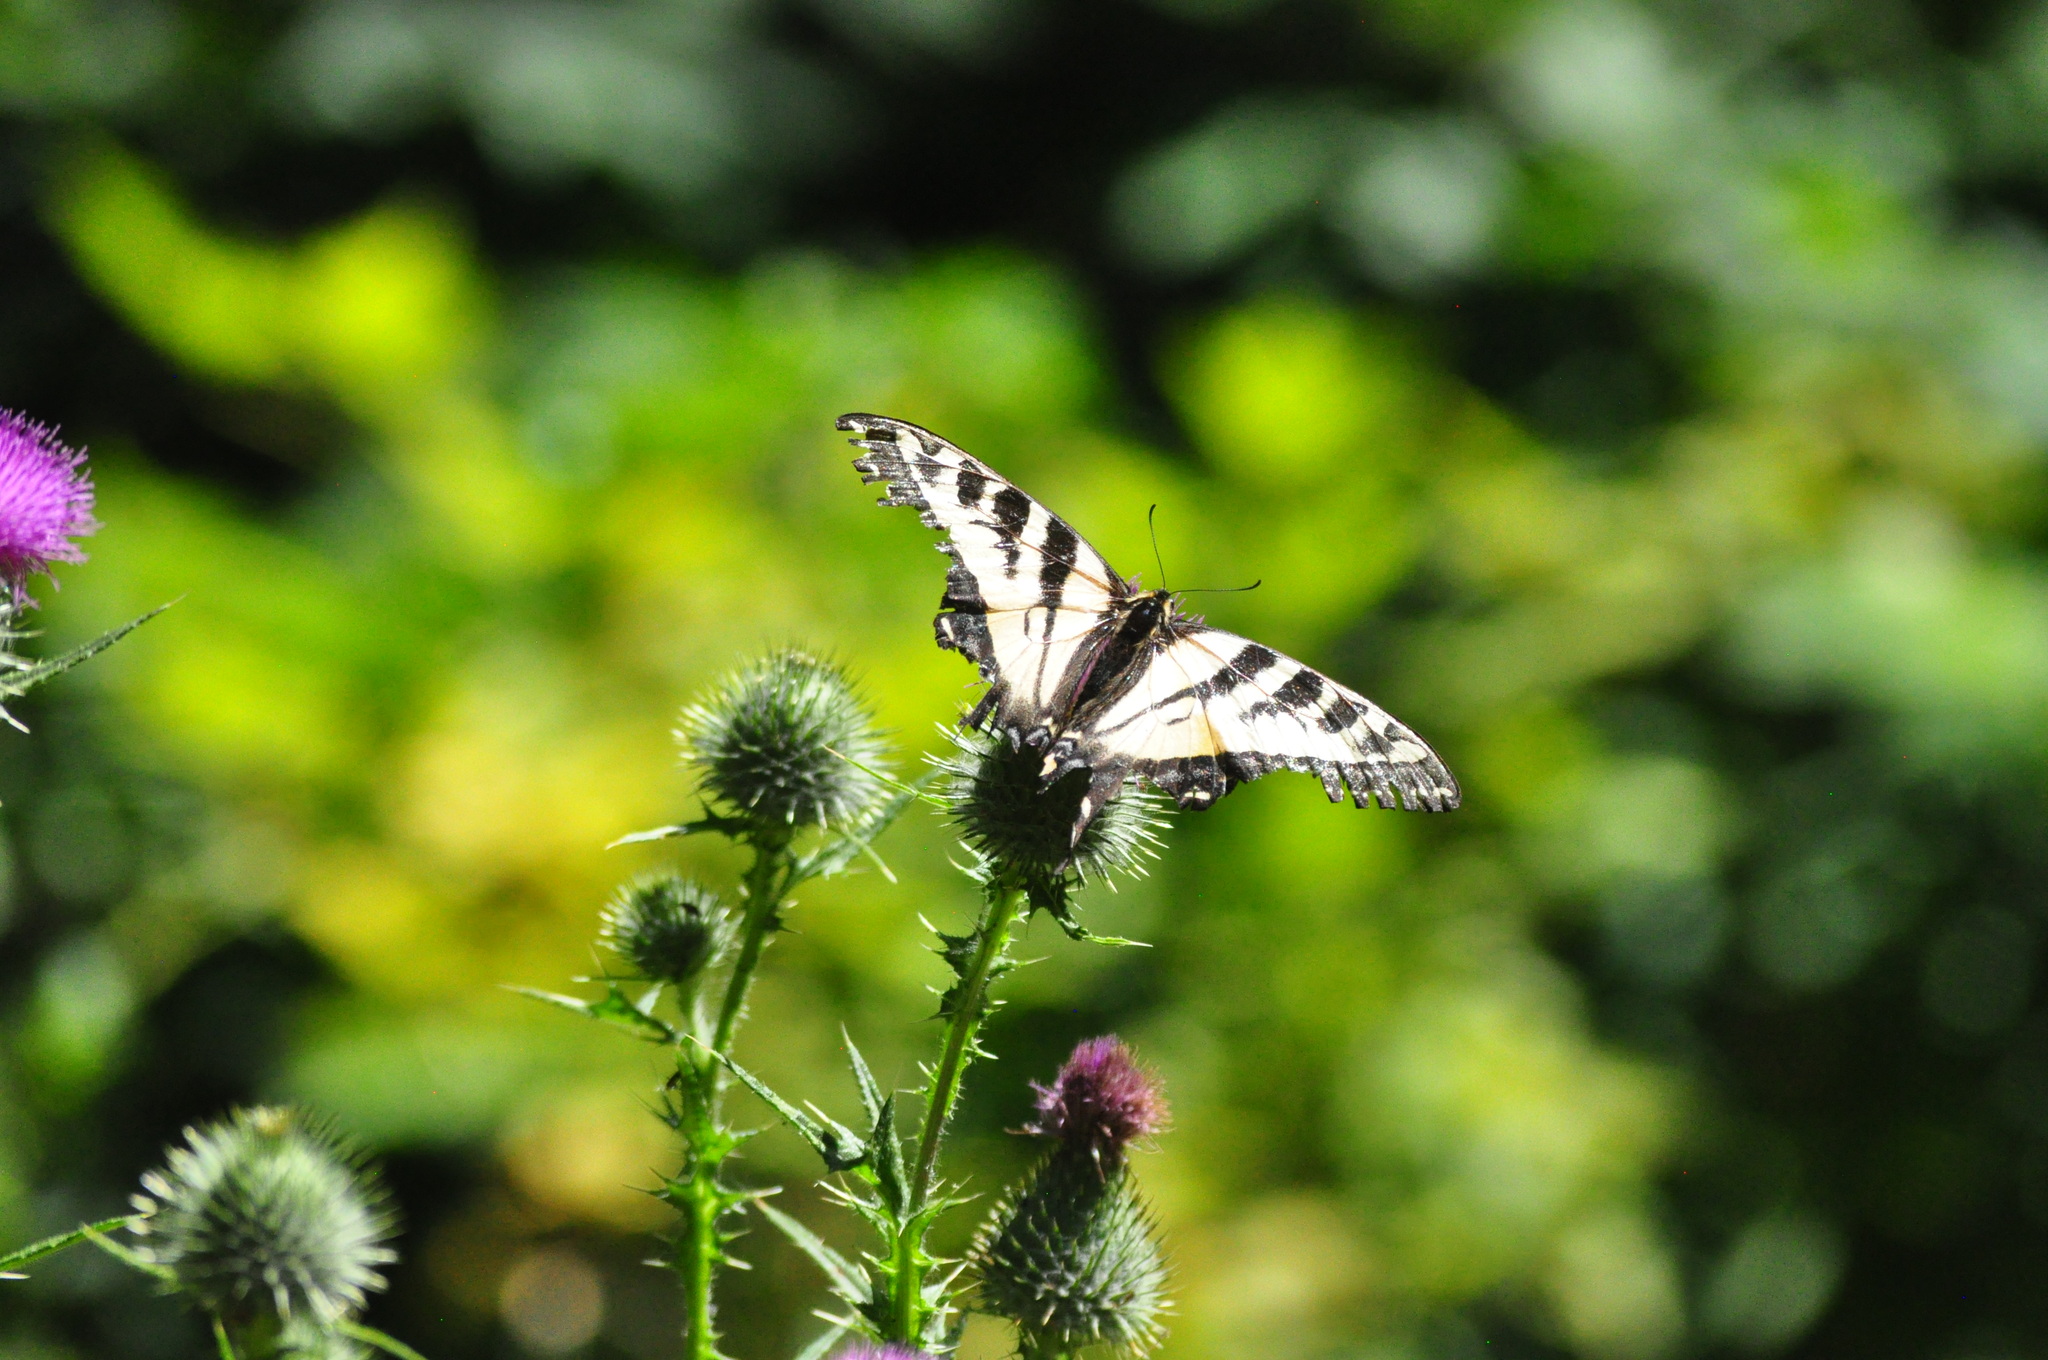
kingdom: Animalia
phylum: Arthropoda
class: Insecta
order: Lepidoptera
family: Papilionidae
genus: Papilio
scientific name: Papilio eurymedon
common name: Pale tiger swallowtail
